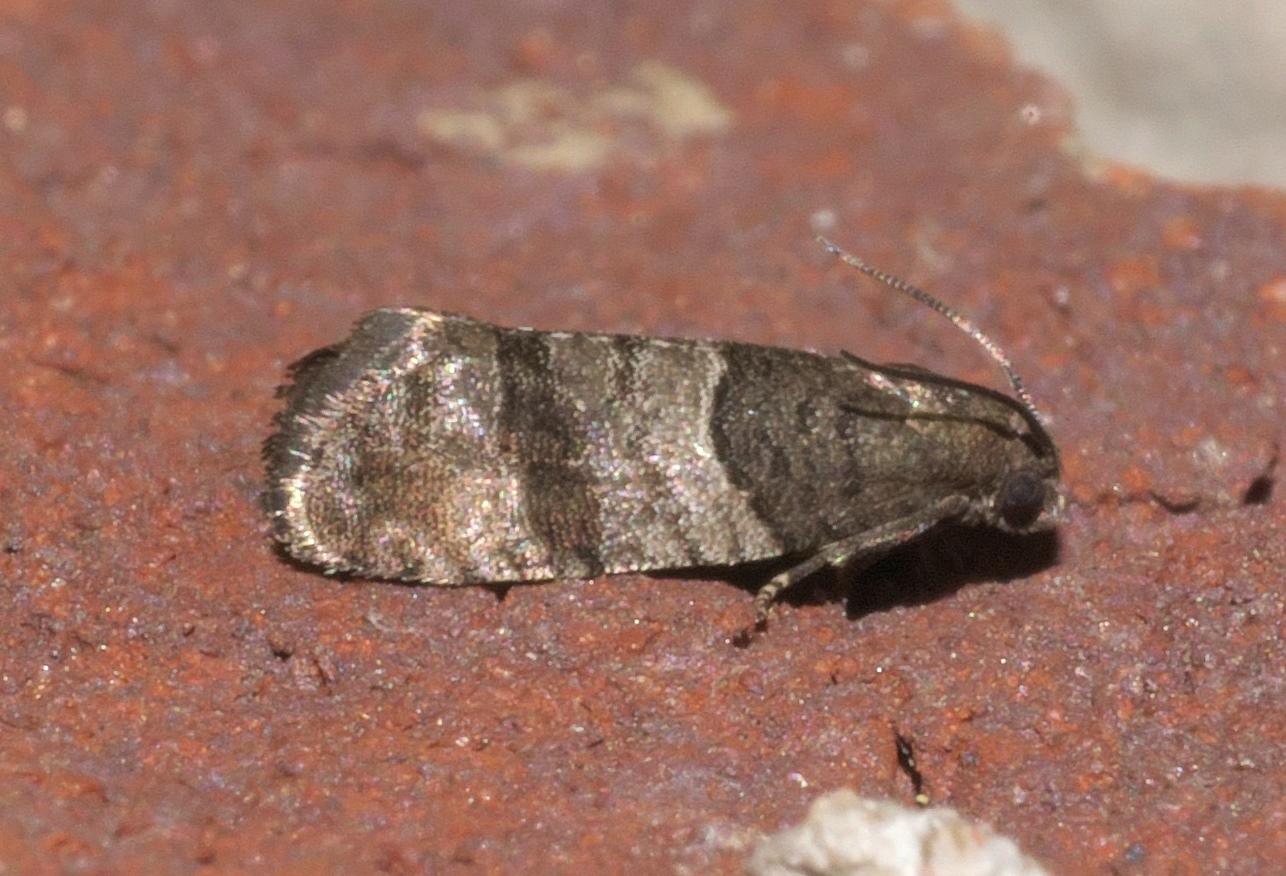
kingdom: Animalia
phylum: Arthropoda
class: Insecta
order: Lepidoptera
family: Tortricidae
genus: Larisa
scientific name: Larisa subsolana
